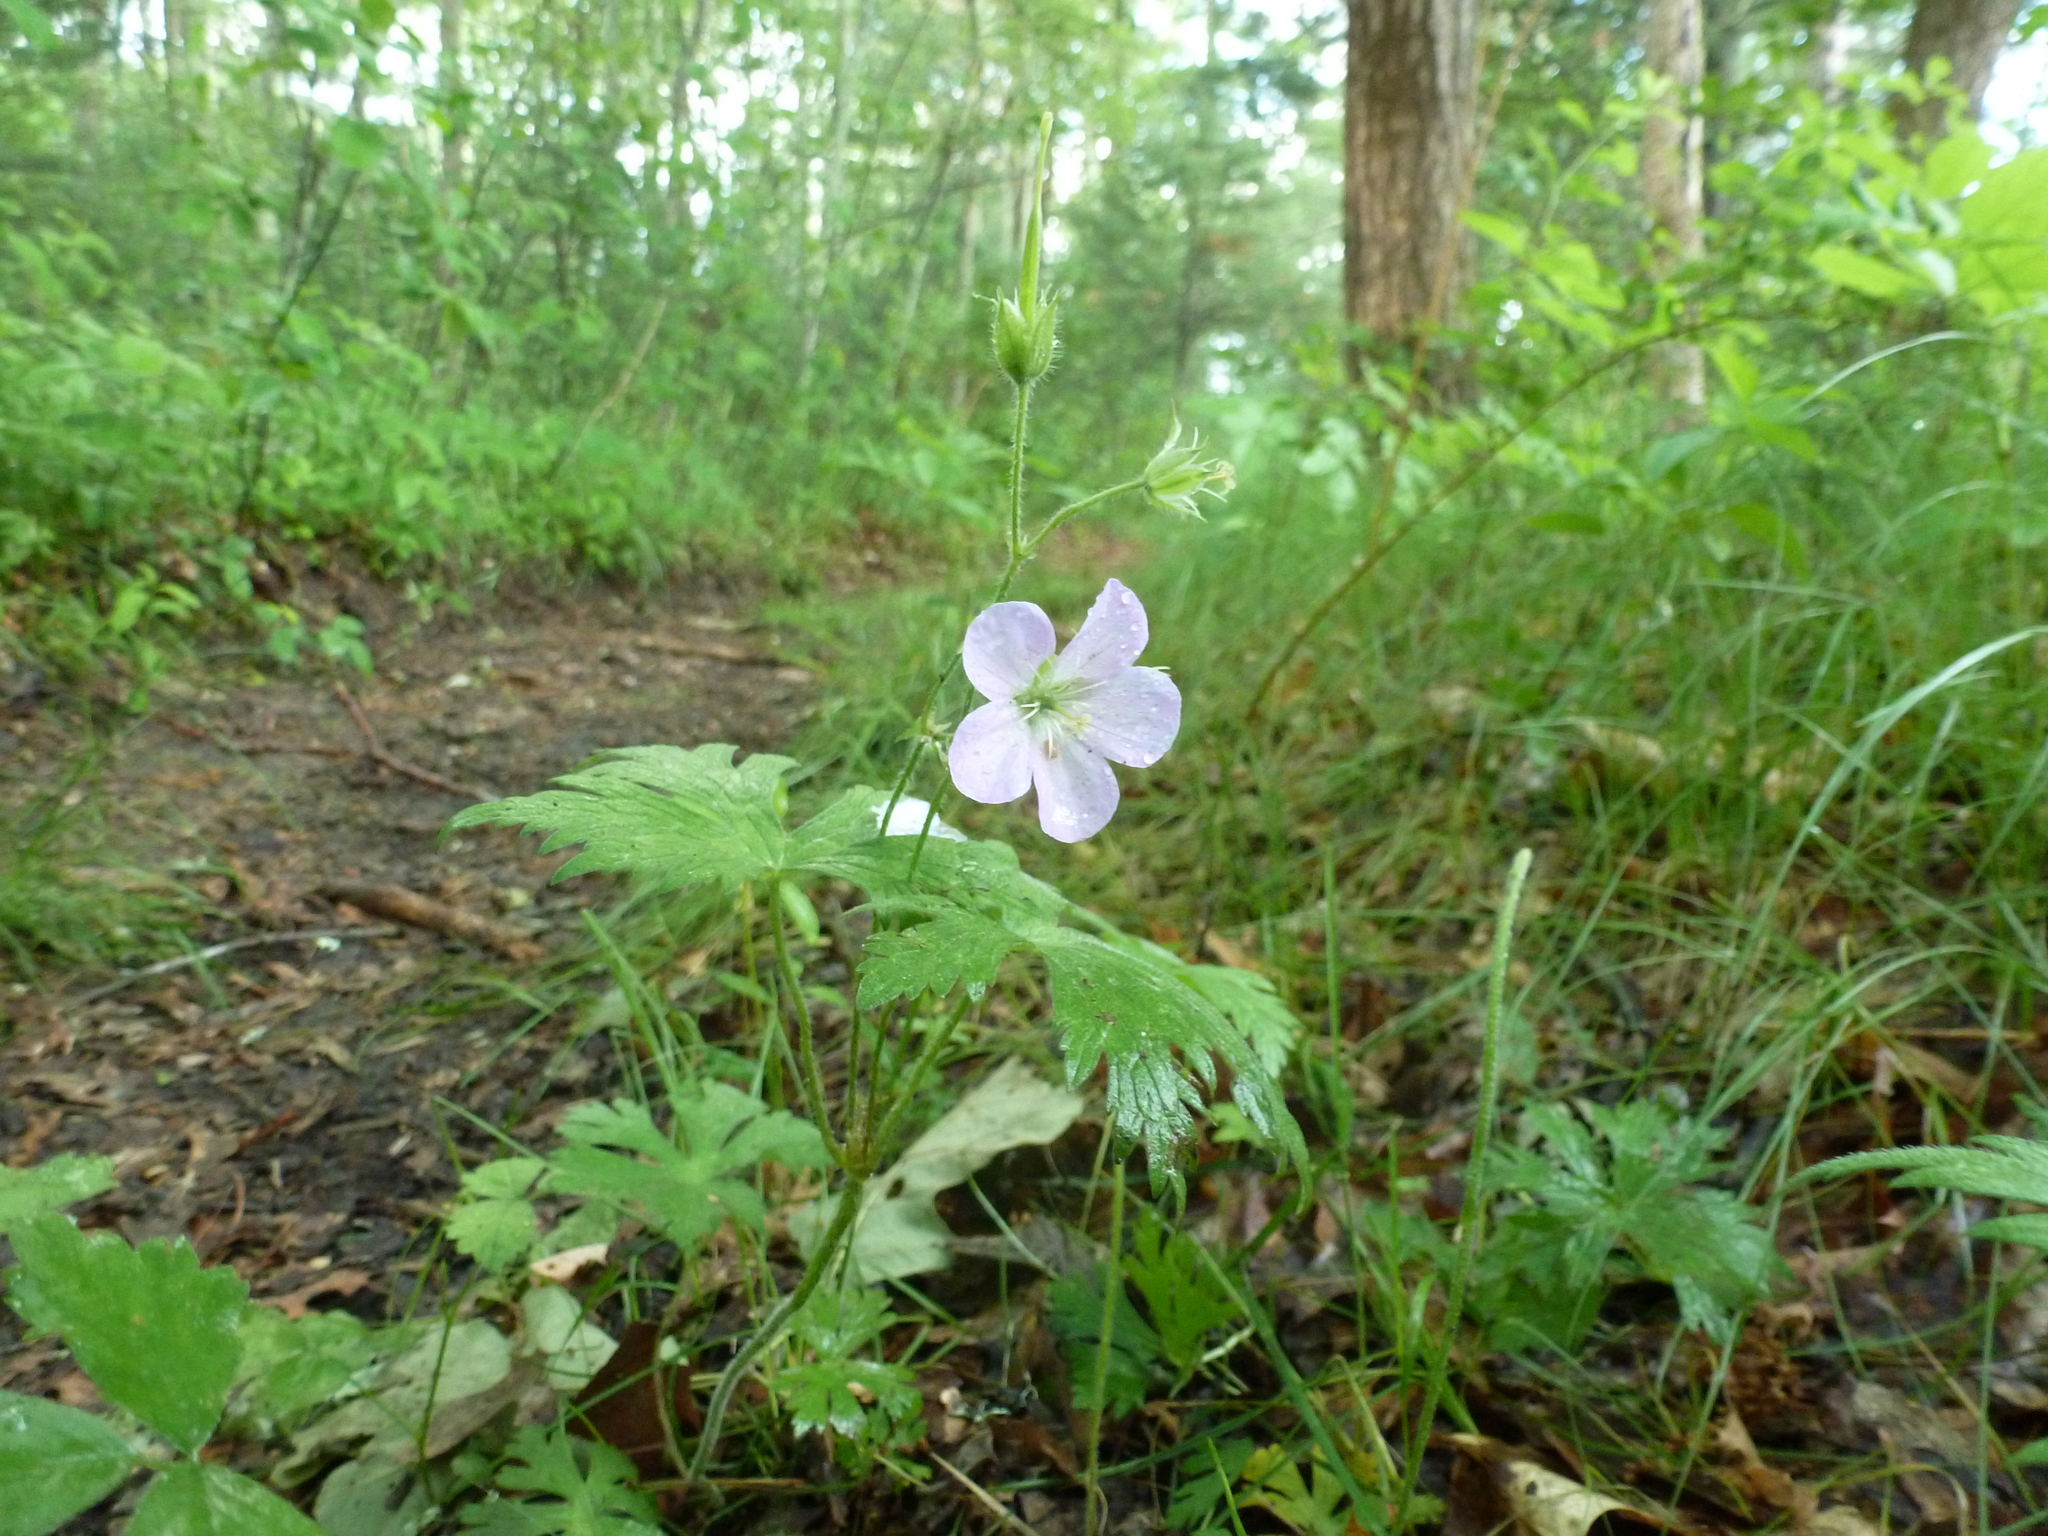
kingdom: Plantae
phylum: Tracheophyta
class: Magnoliopsida
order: Geraniales
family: Geraniaceae
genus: Geranium
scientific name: Geranium maculatum
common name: Spotted geranium
